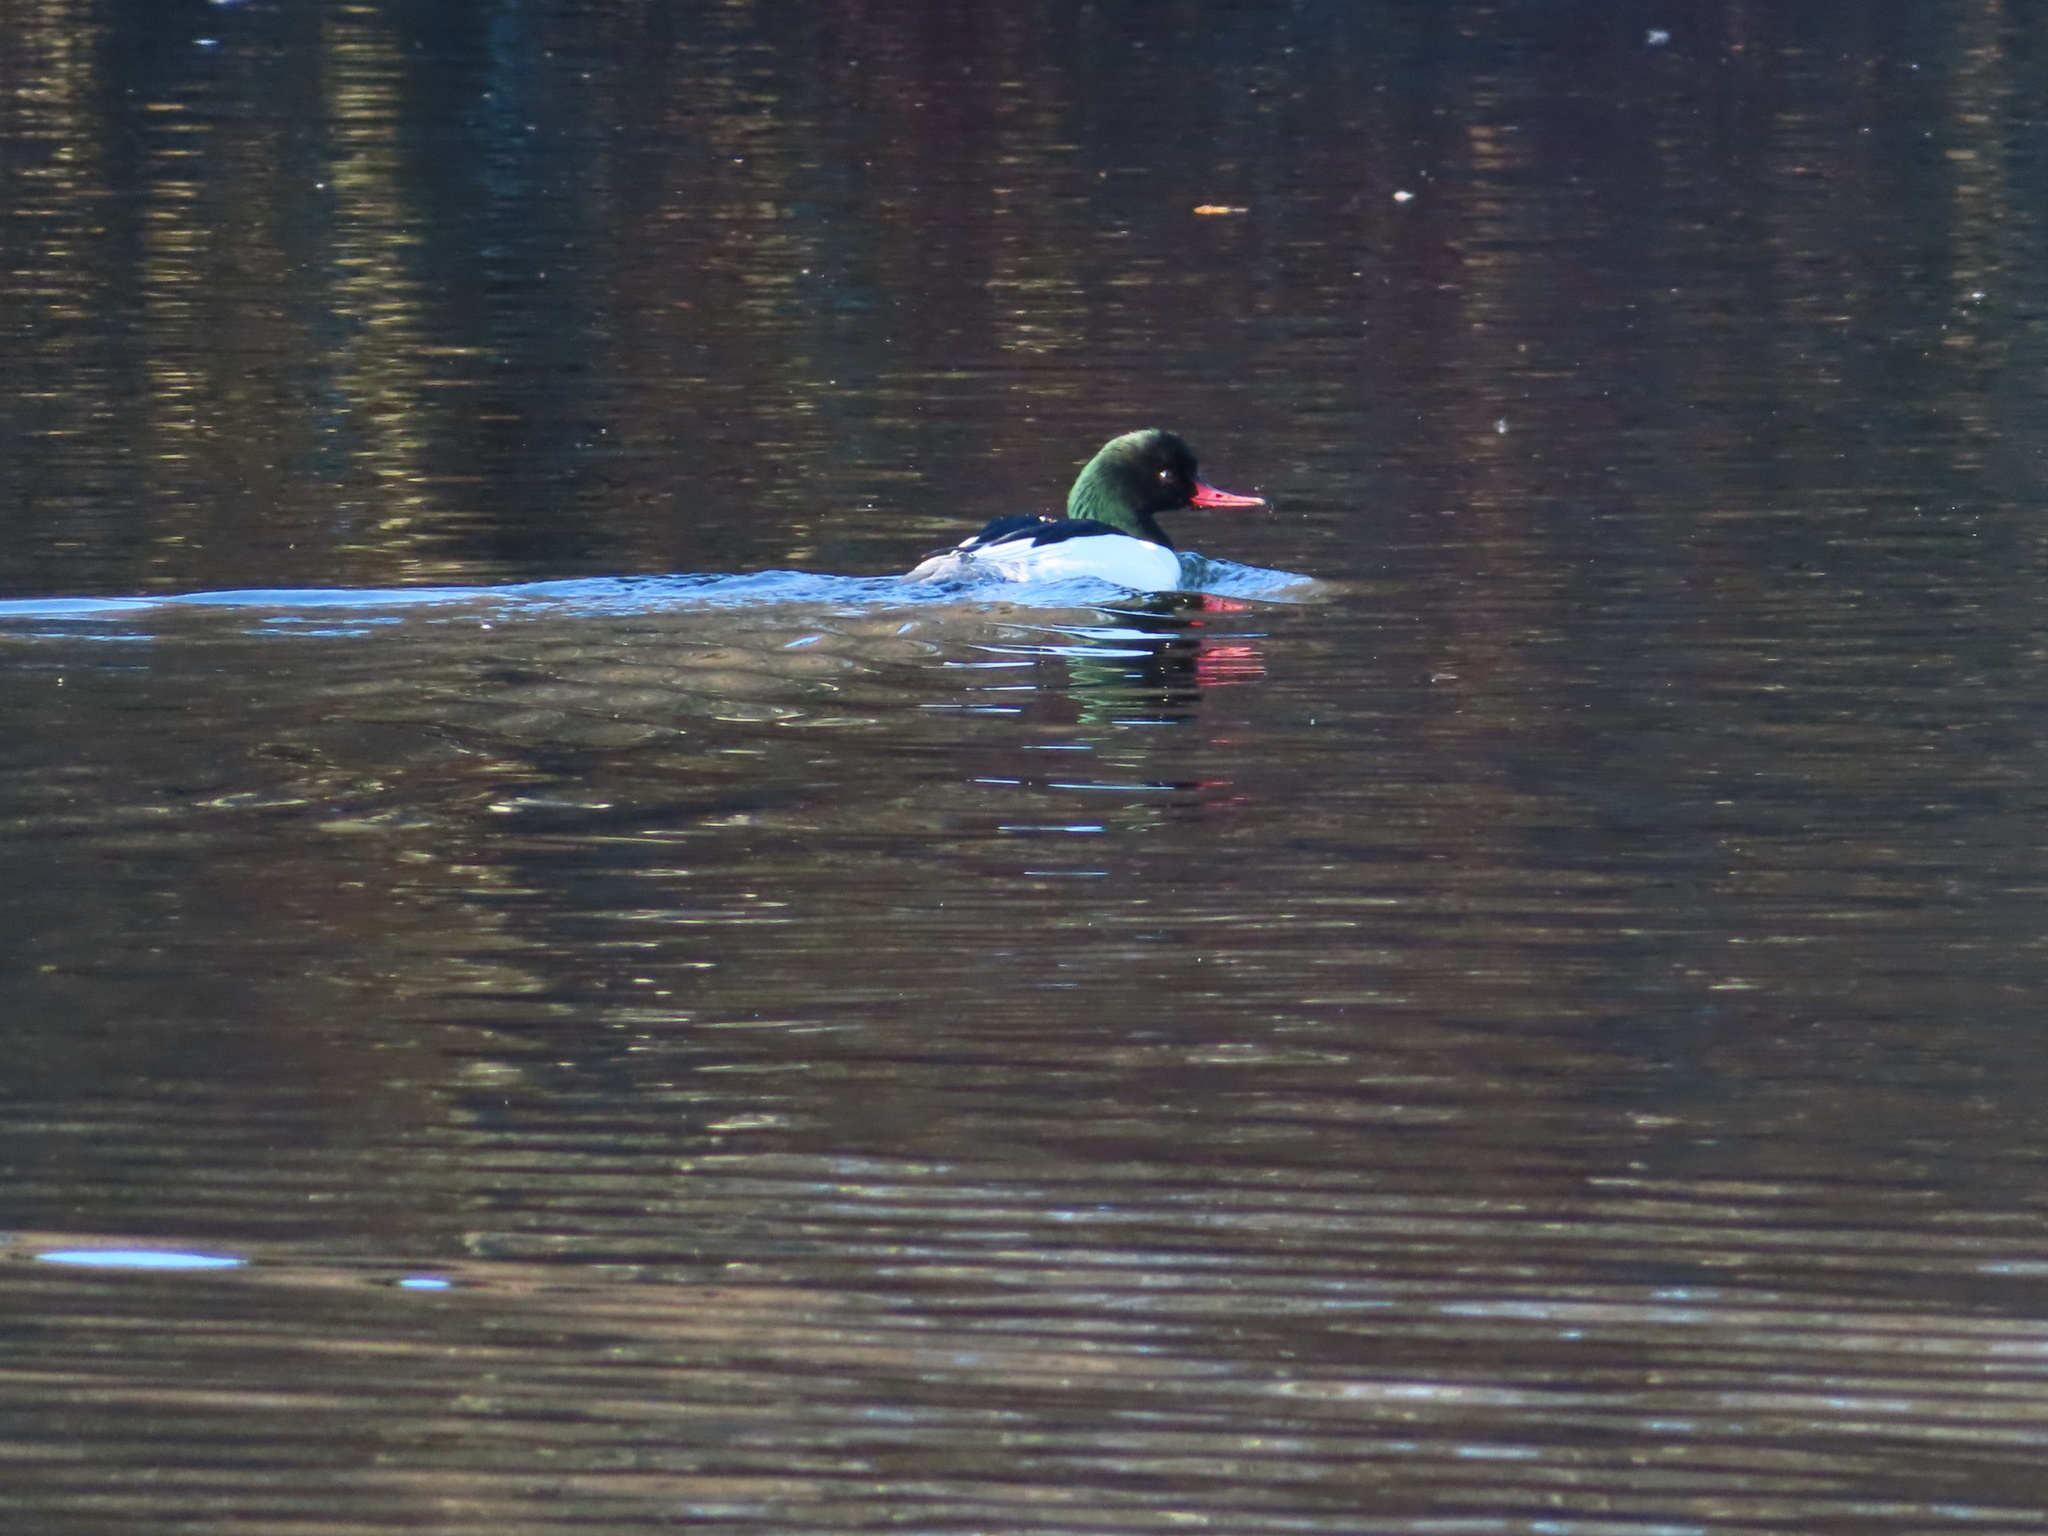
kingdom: Animalia
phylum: Chordata
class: Aves
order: Anseriformes
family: Anatidae
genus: Mergus
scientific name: Mergus merganser
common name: Common merganser
